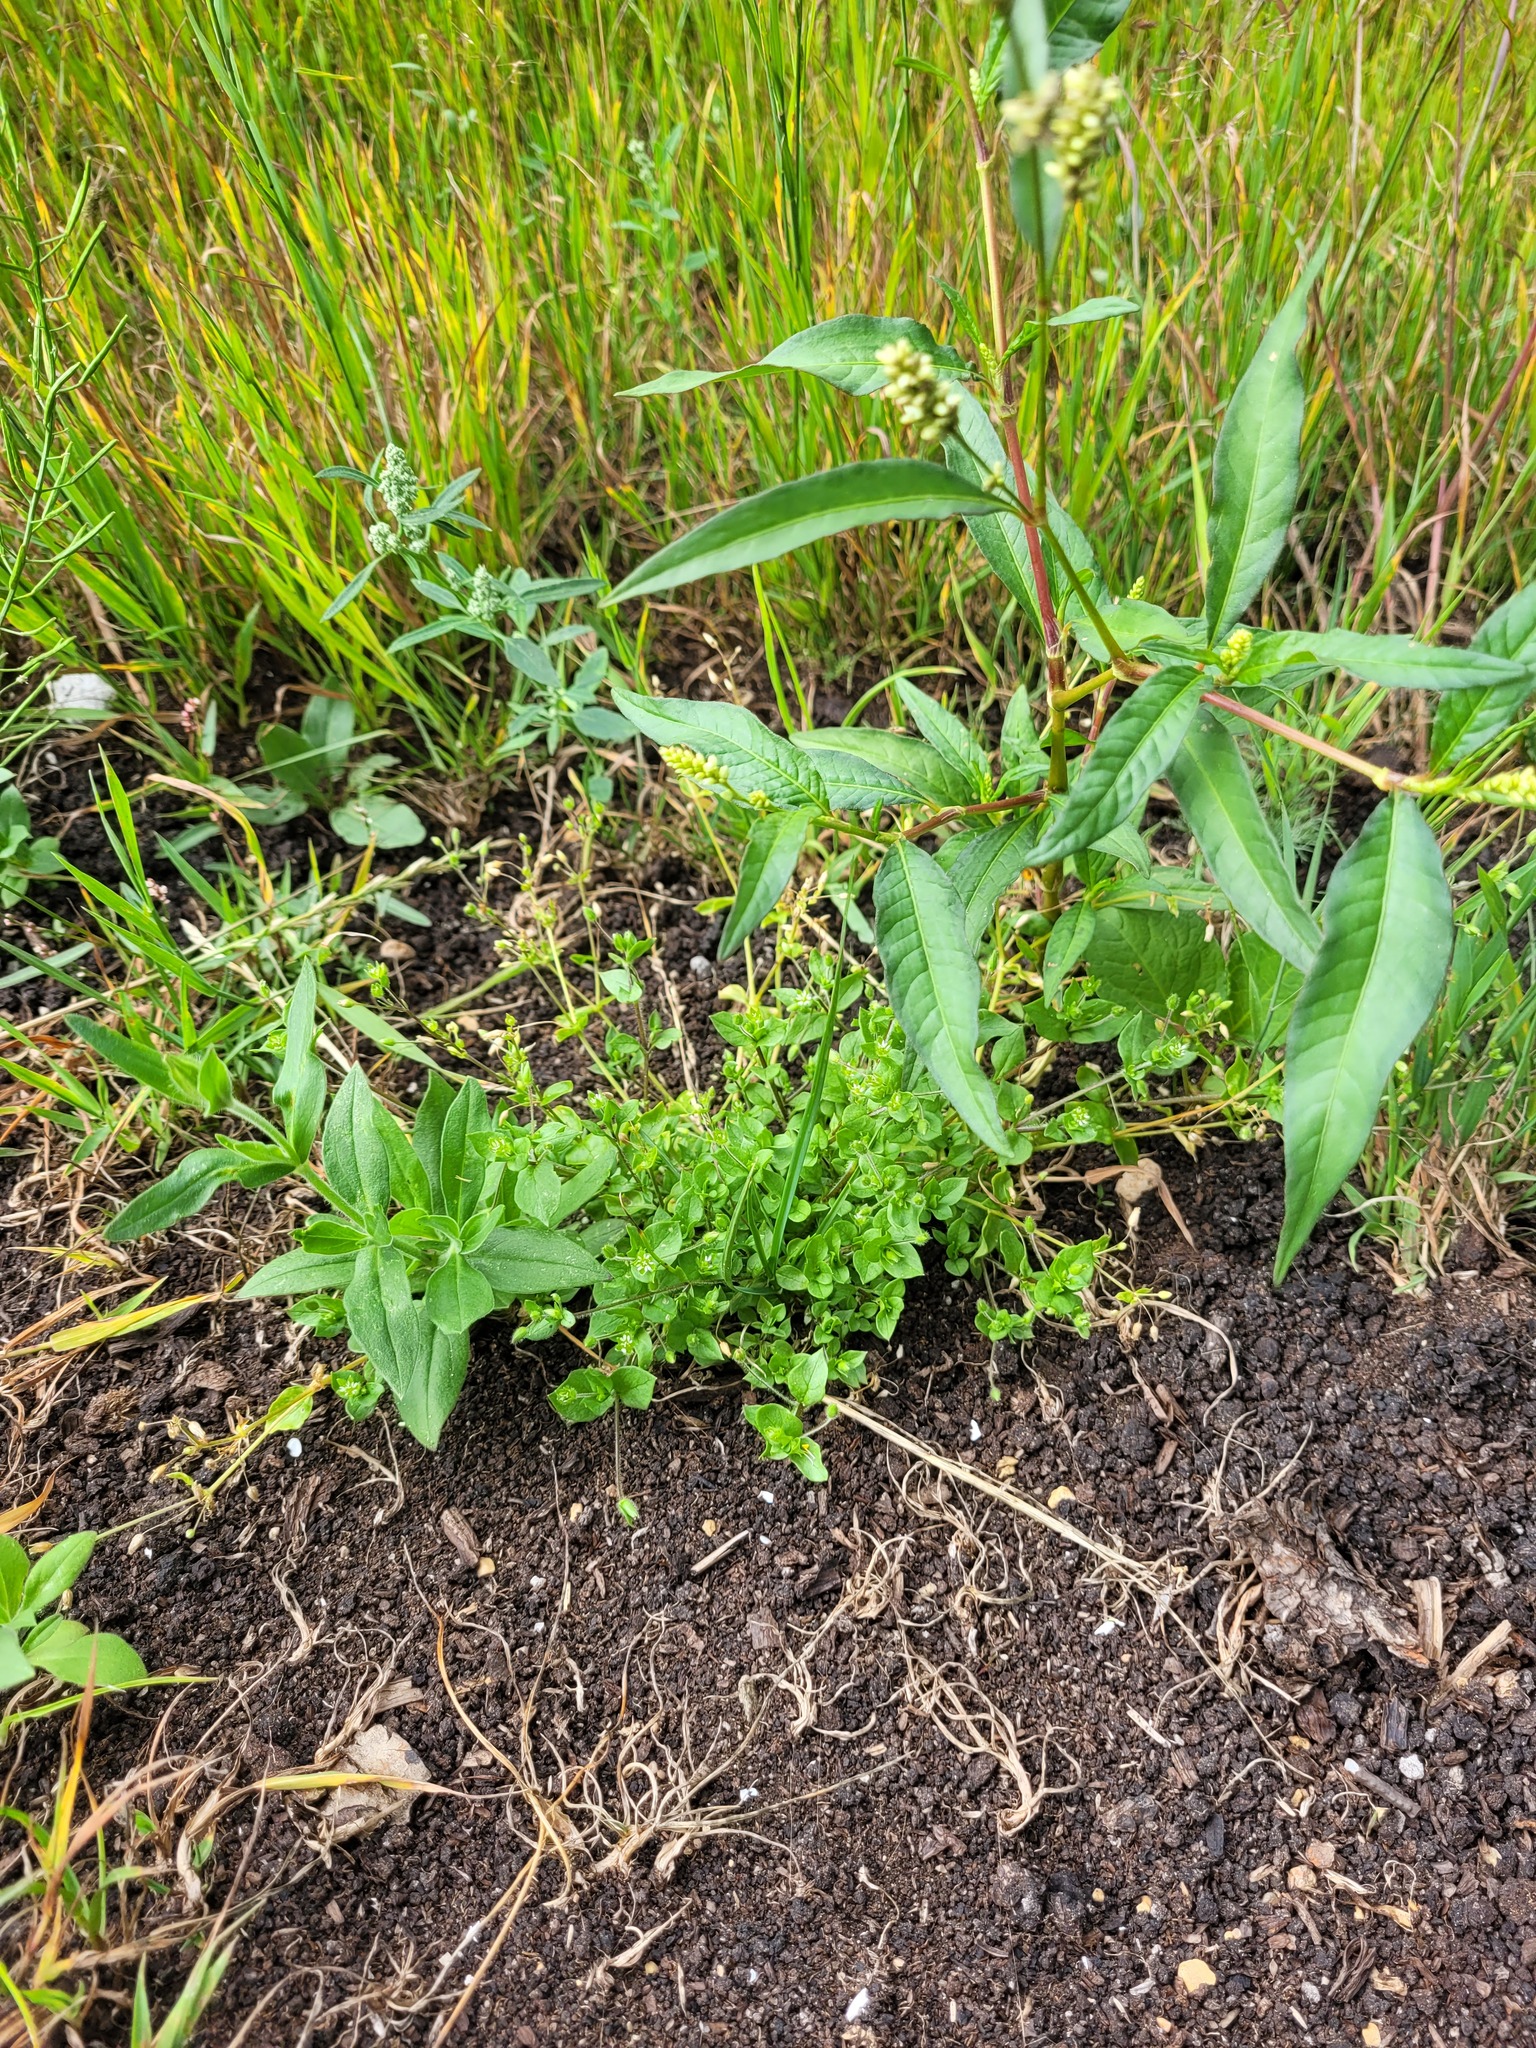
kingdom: Plantae
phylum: Tracheophyta
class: Magnoliopsida
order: Caryophyllales
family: Caryophyllaceae
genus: Stellaria
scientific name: Stellaria media
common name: Common chickweed
